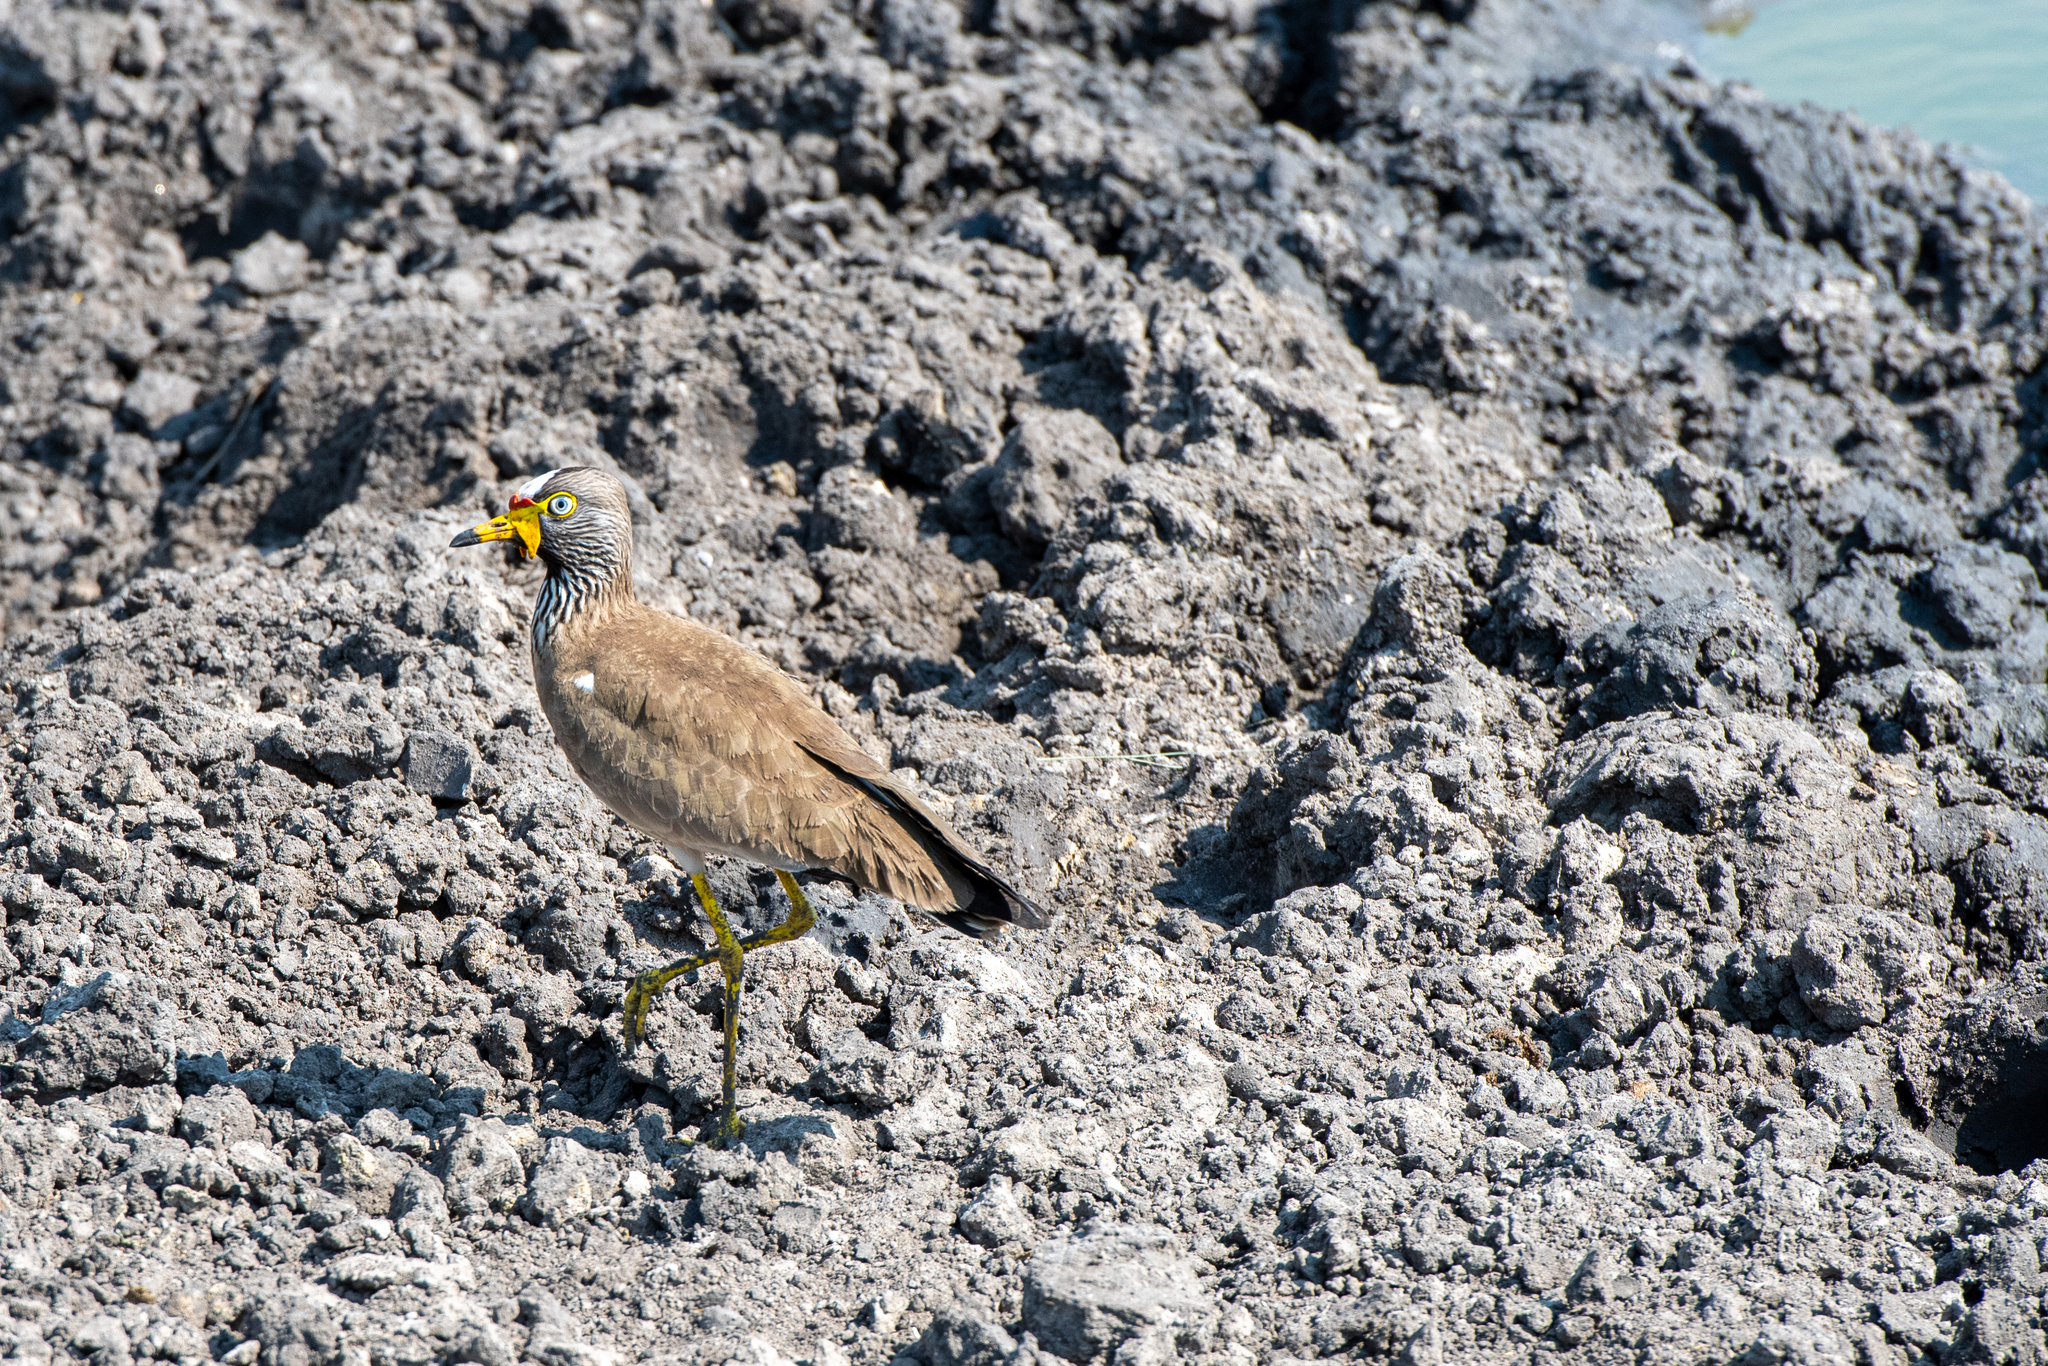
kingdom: Animalia
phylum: Chordata
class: Aves
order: Charadriiformes
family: Charadriidae
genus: Vanellus
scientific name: Vanellus senegallus
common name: African wattled lapwing
